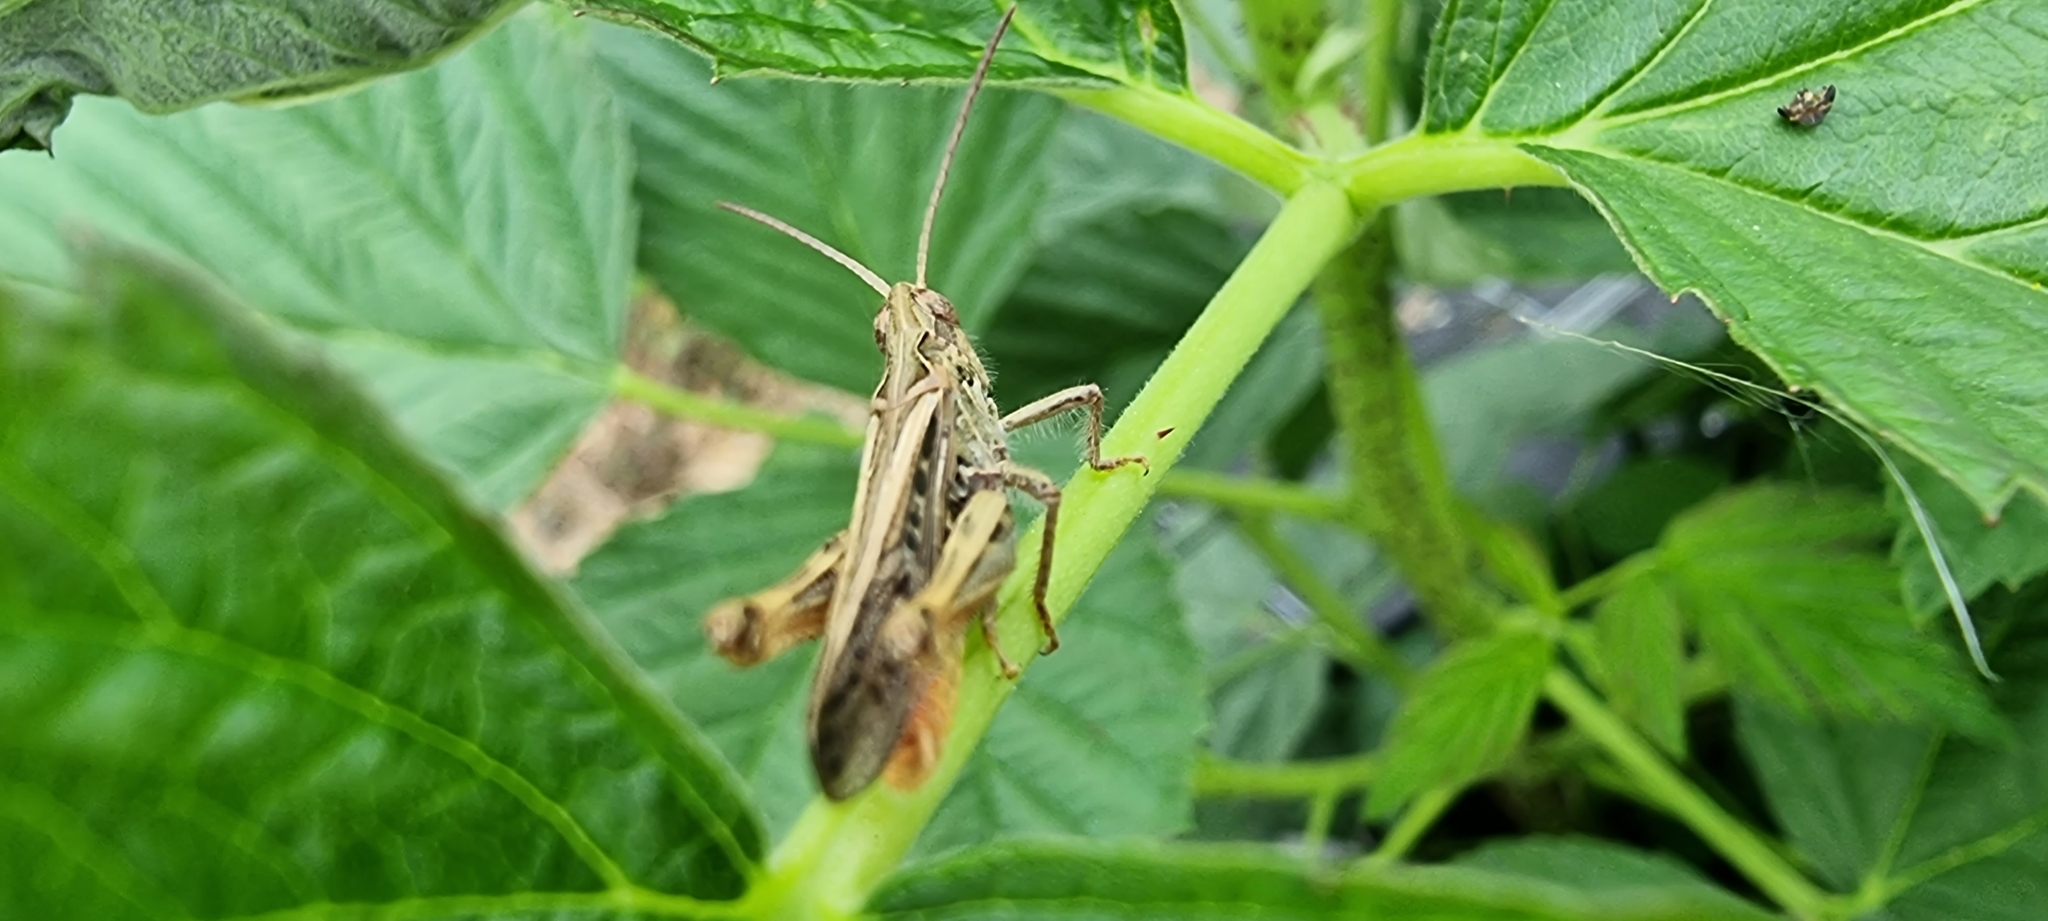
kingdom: Animalia
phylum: Arthropoda
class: Insecta
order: Orthoptera
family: Acrididae
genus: Chorthippus
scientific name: Chorthippus brunneus
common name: Field grasshopper
